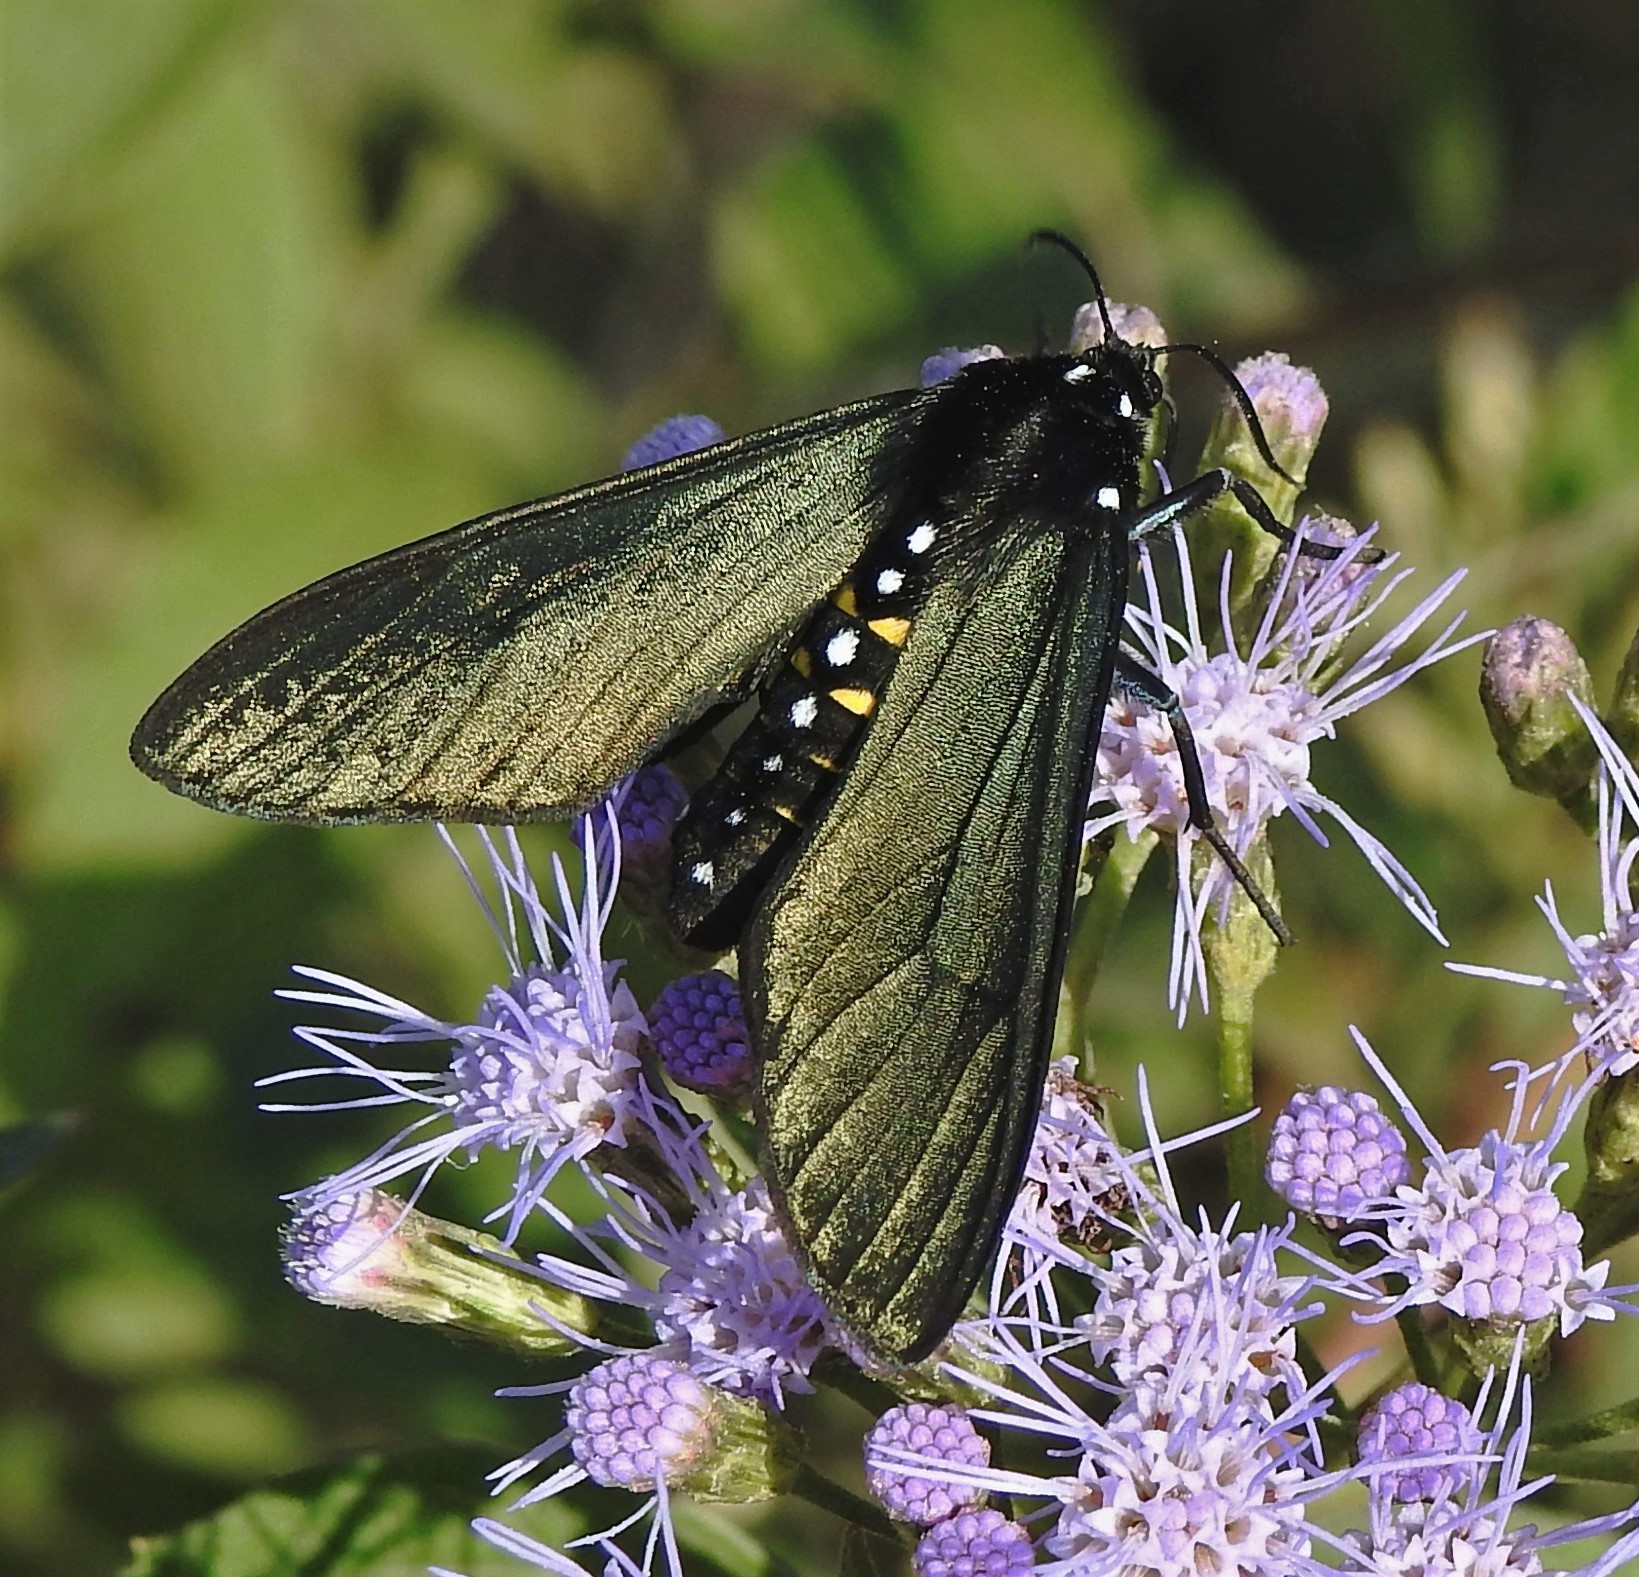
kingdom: Animalia
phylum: Arthropoda
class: Insecta
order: Lepidoptera
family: Erebidae
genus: Chrysocale
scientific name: Chrysocale ferens
